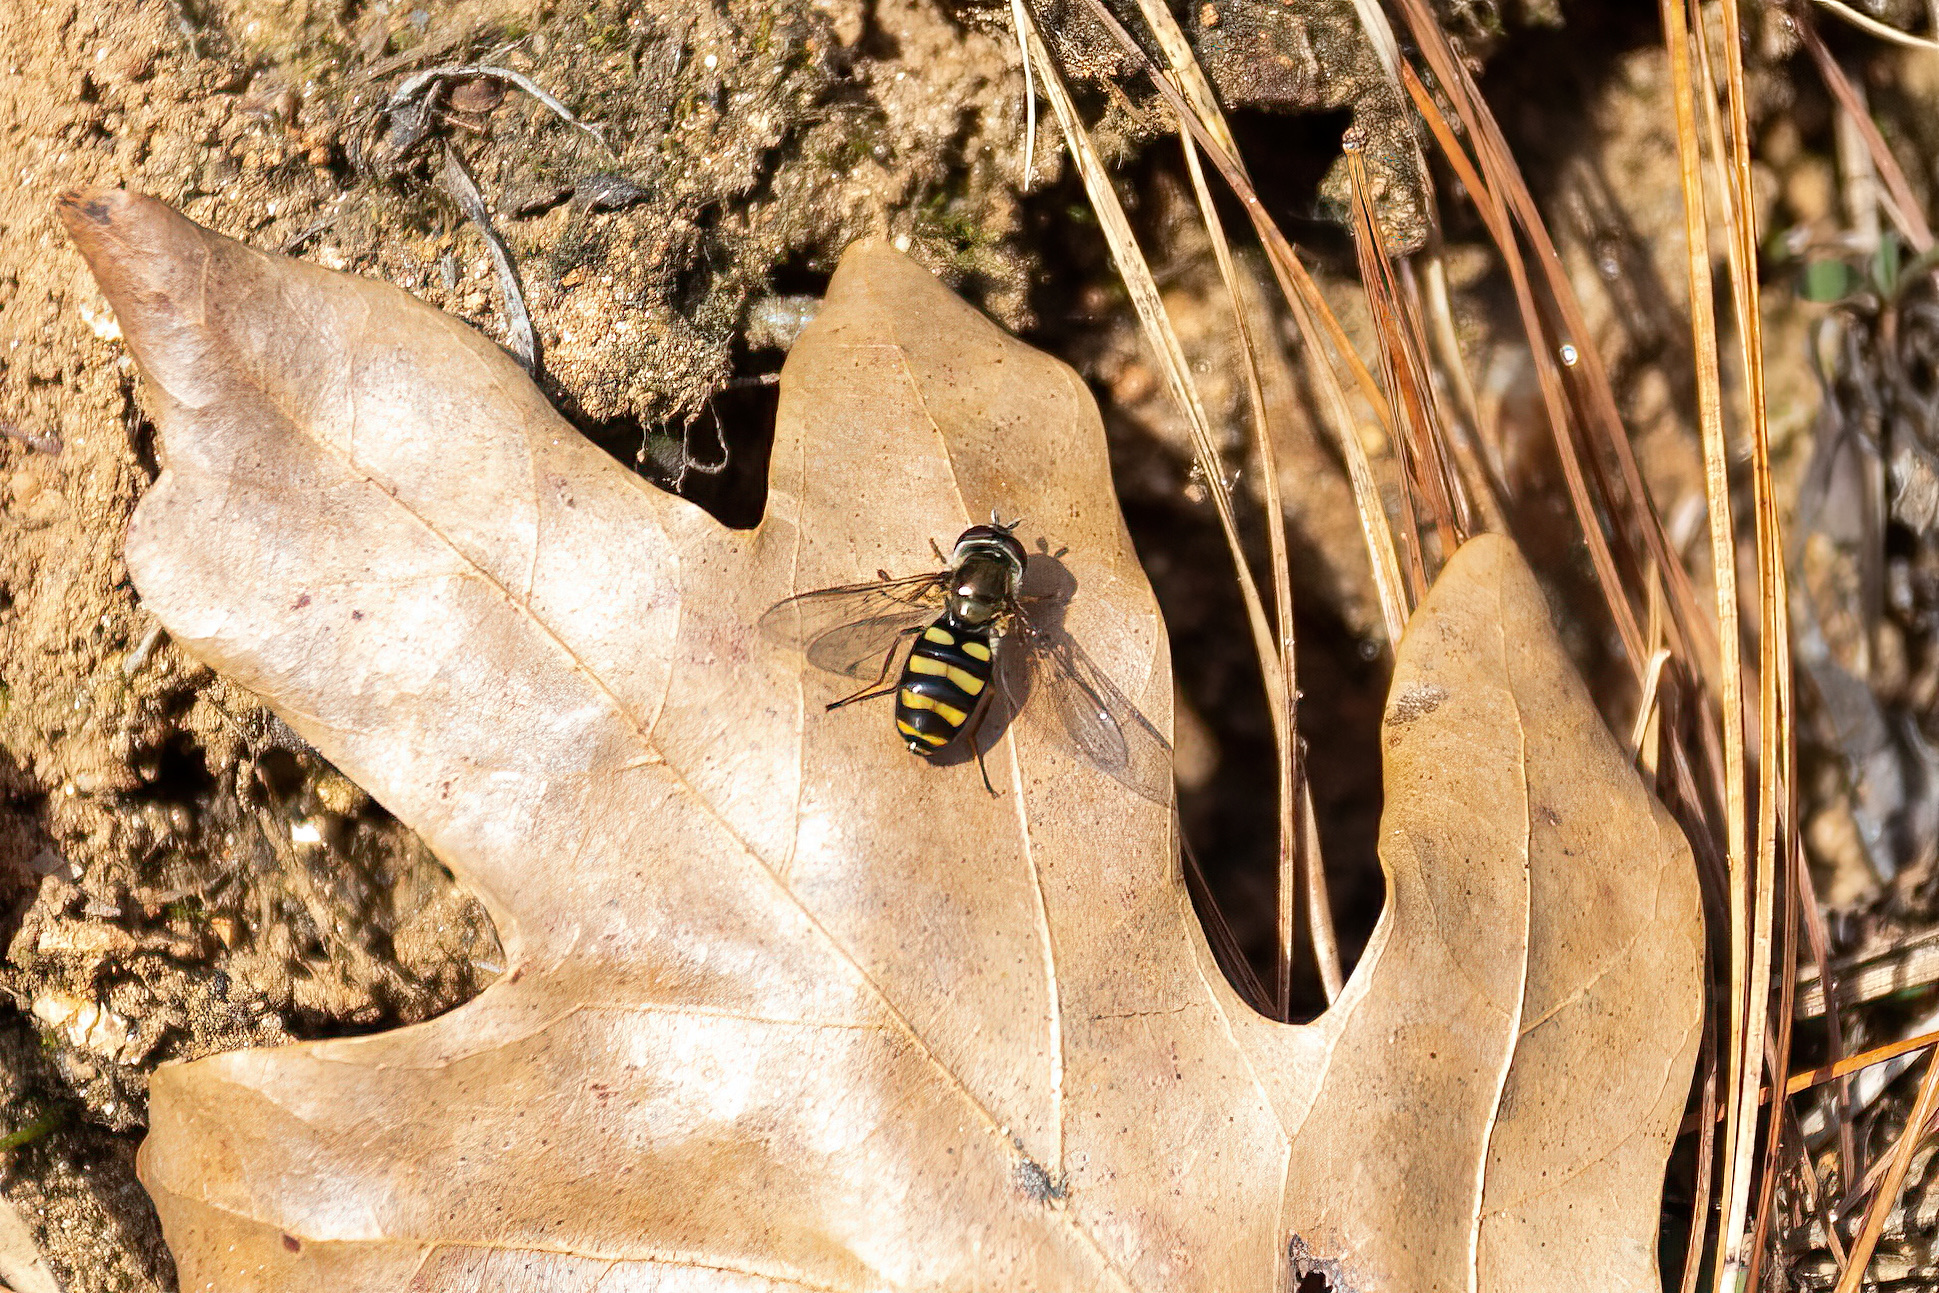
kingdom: Animalia
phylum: Arthropoda
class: Insecta
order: Diptera
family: Syrphidae
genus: Eupeodes
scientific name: Eupeodes
